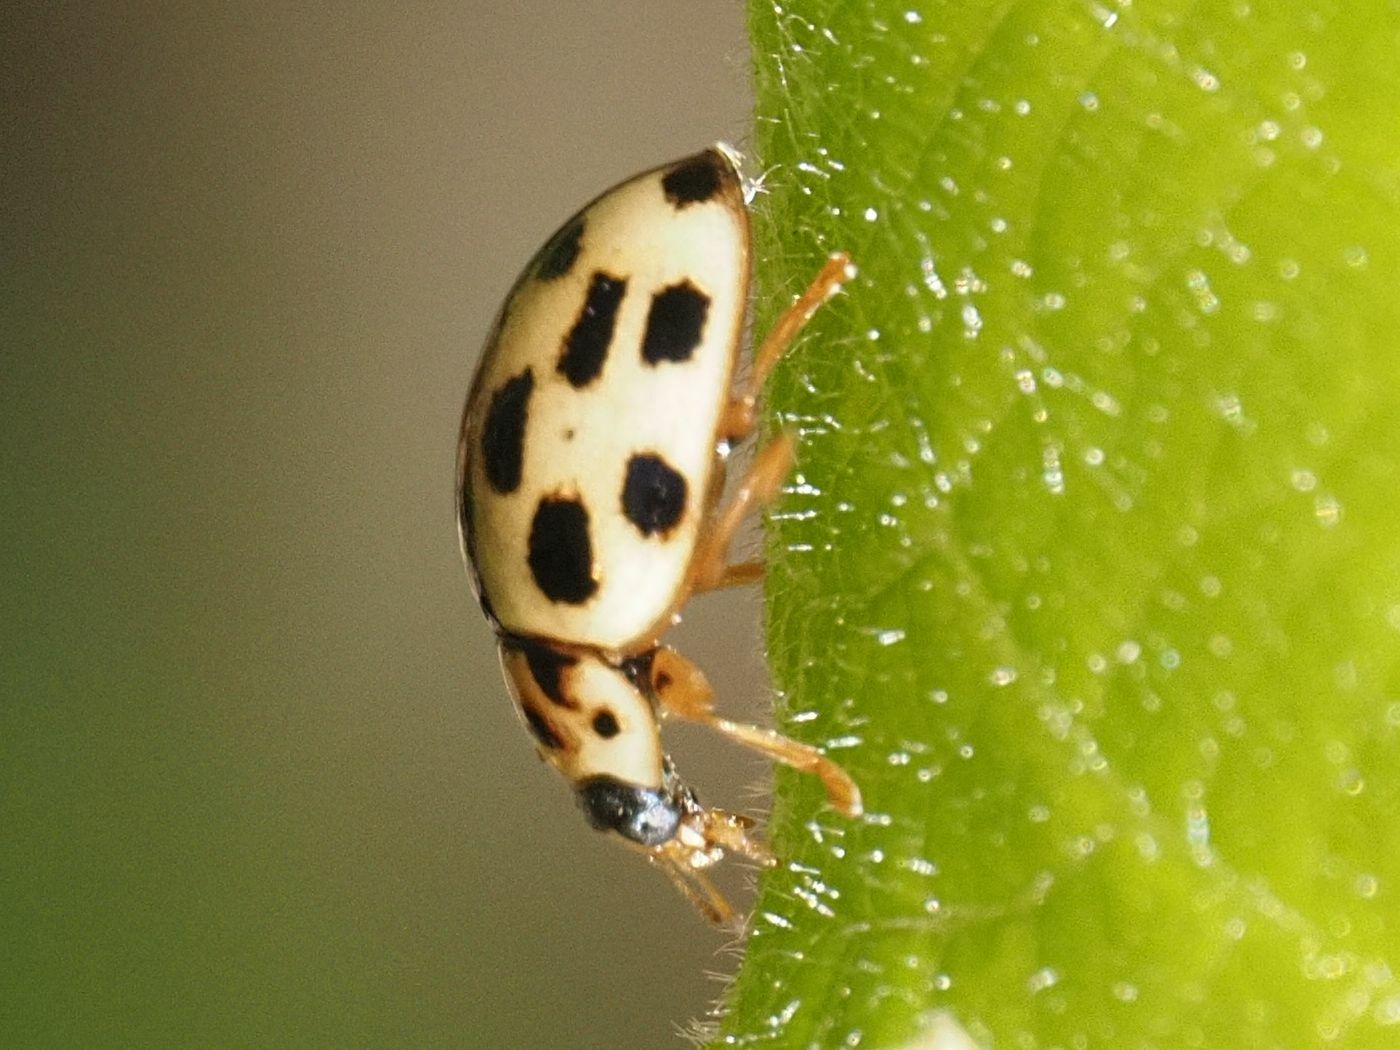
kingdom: Animalia
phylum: Arthropoda
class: Insecta
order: Coleoptera
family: Coccinellidae
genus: Propylaea
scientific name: Propylaea quatuordecimpunctata
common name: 14-spotted ladybird beetle
